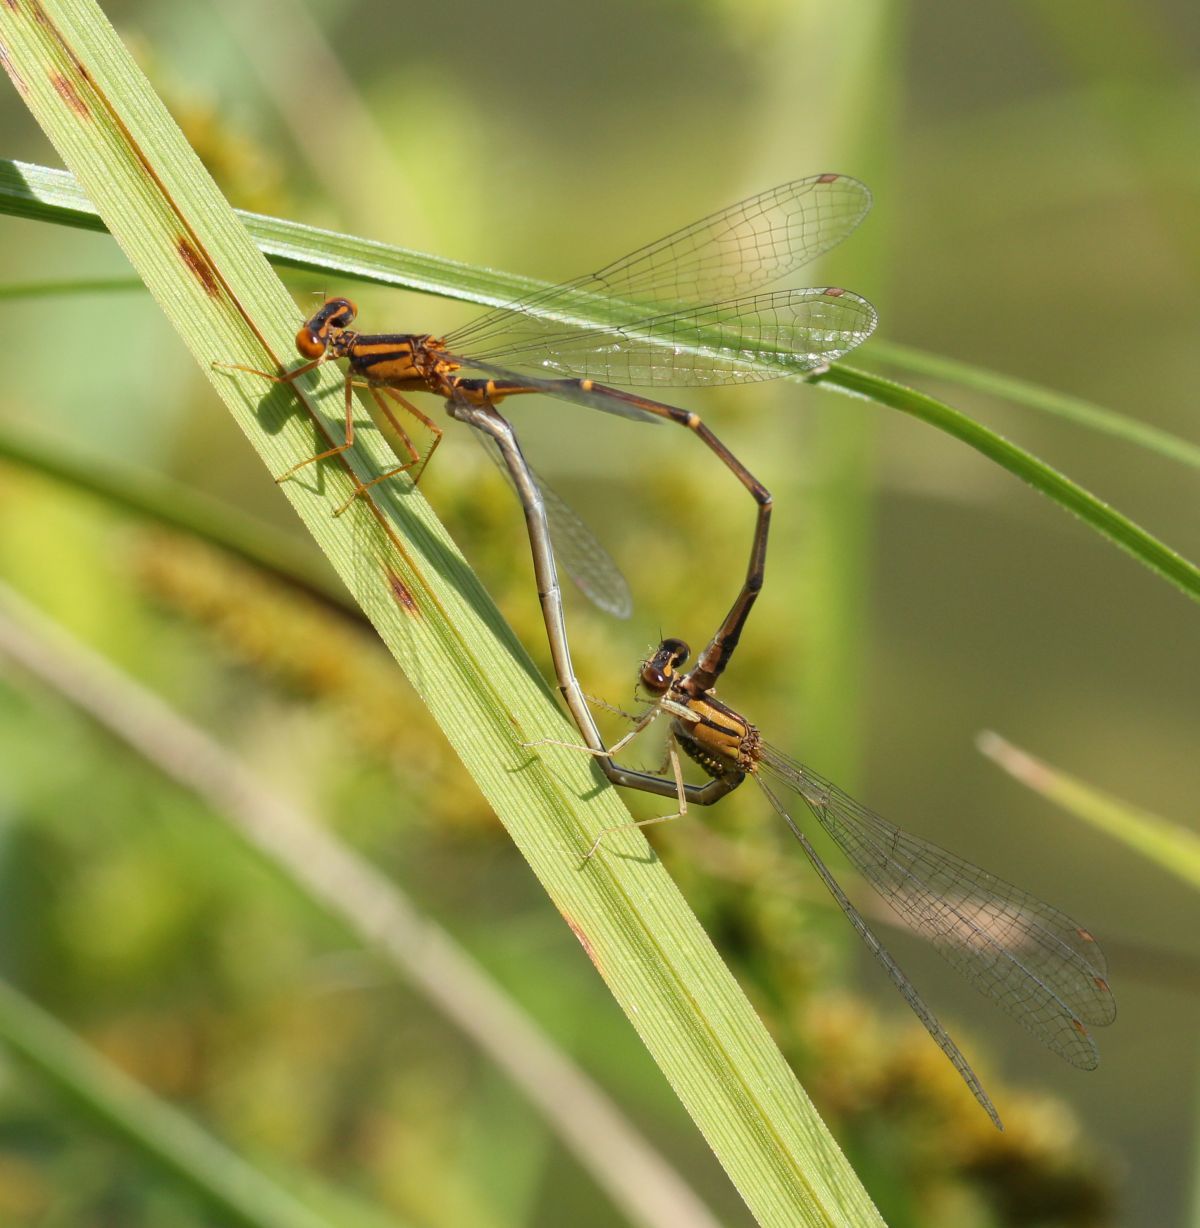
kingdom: Animalia
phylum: Arthropoda
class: Insecta
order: Odonata
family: Coenagrionidae
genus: Enallagma
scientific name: Enallagma signatum
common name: Orange bluet
